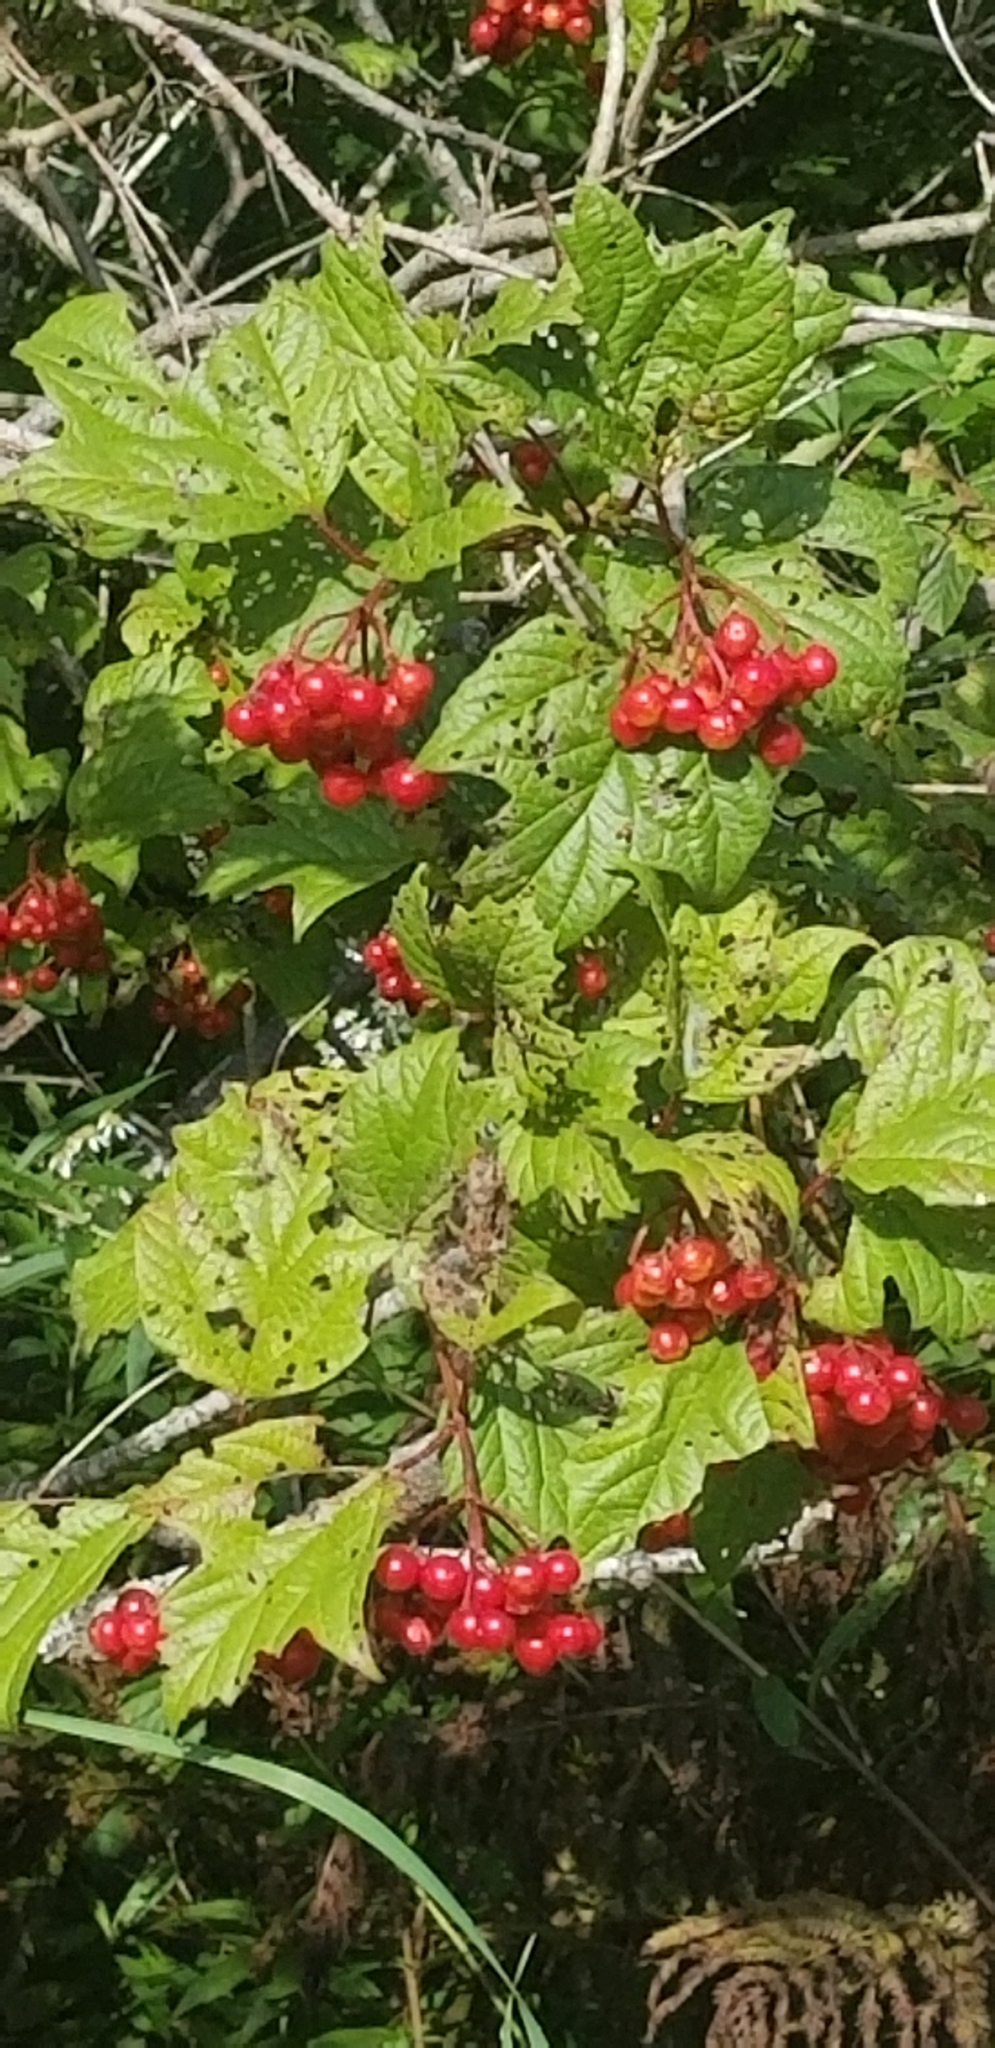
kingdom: Plantae
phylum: Tracheophyta
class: Magnoliopsida
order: Dipsacales
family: Viburnaceae
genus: Viburnum
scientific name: Viburnum opulus
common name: Guelder-rose
